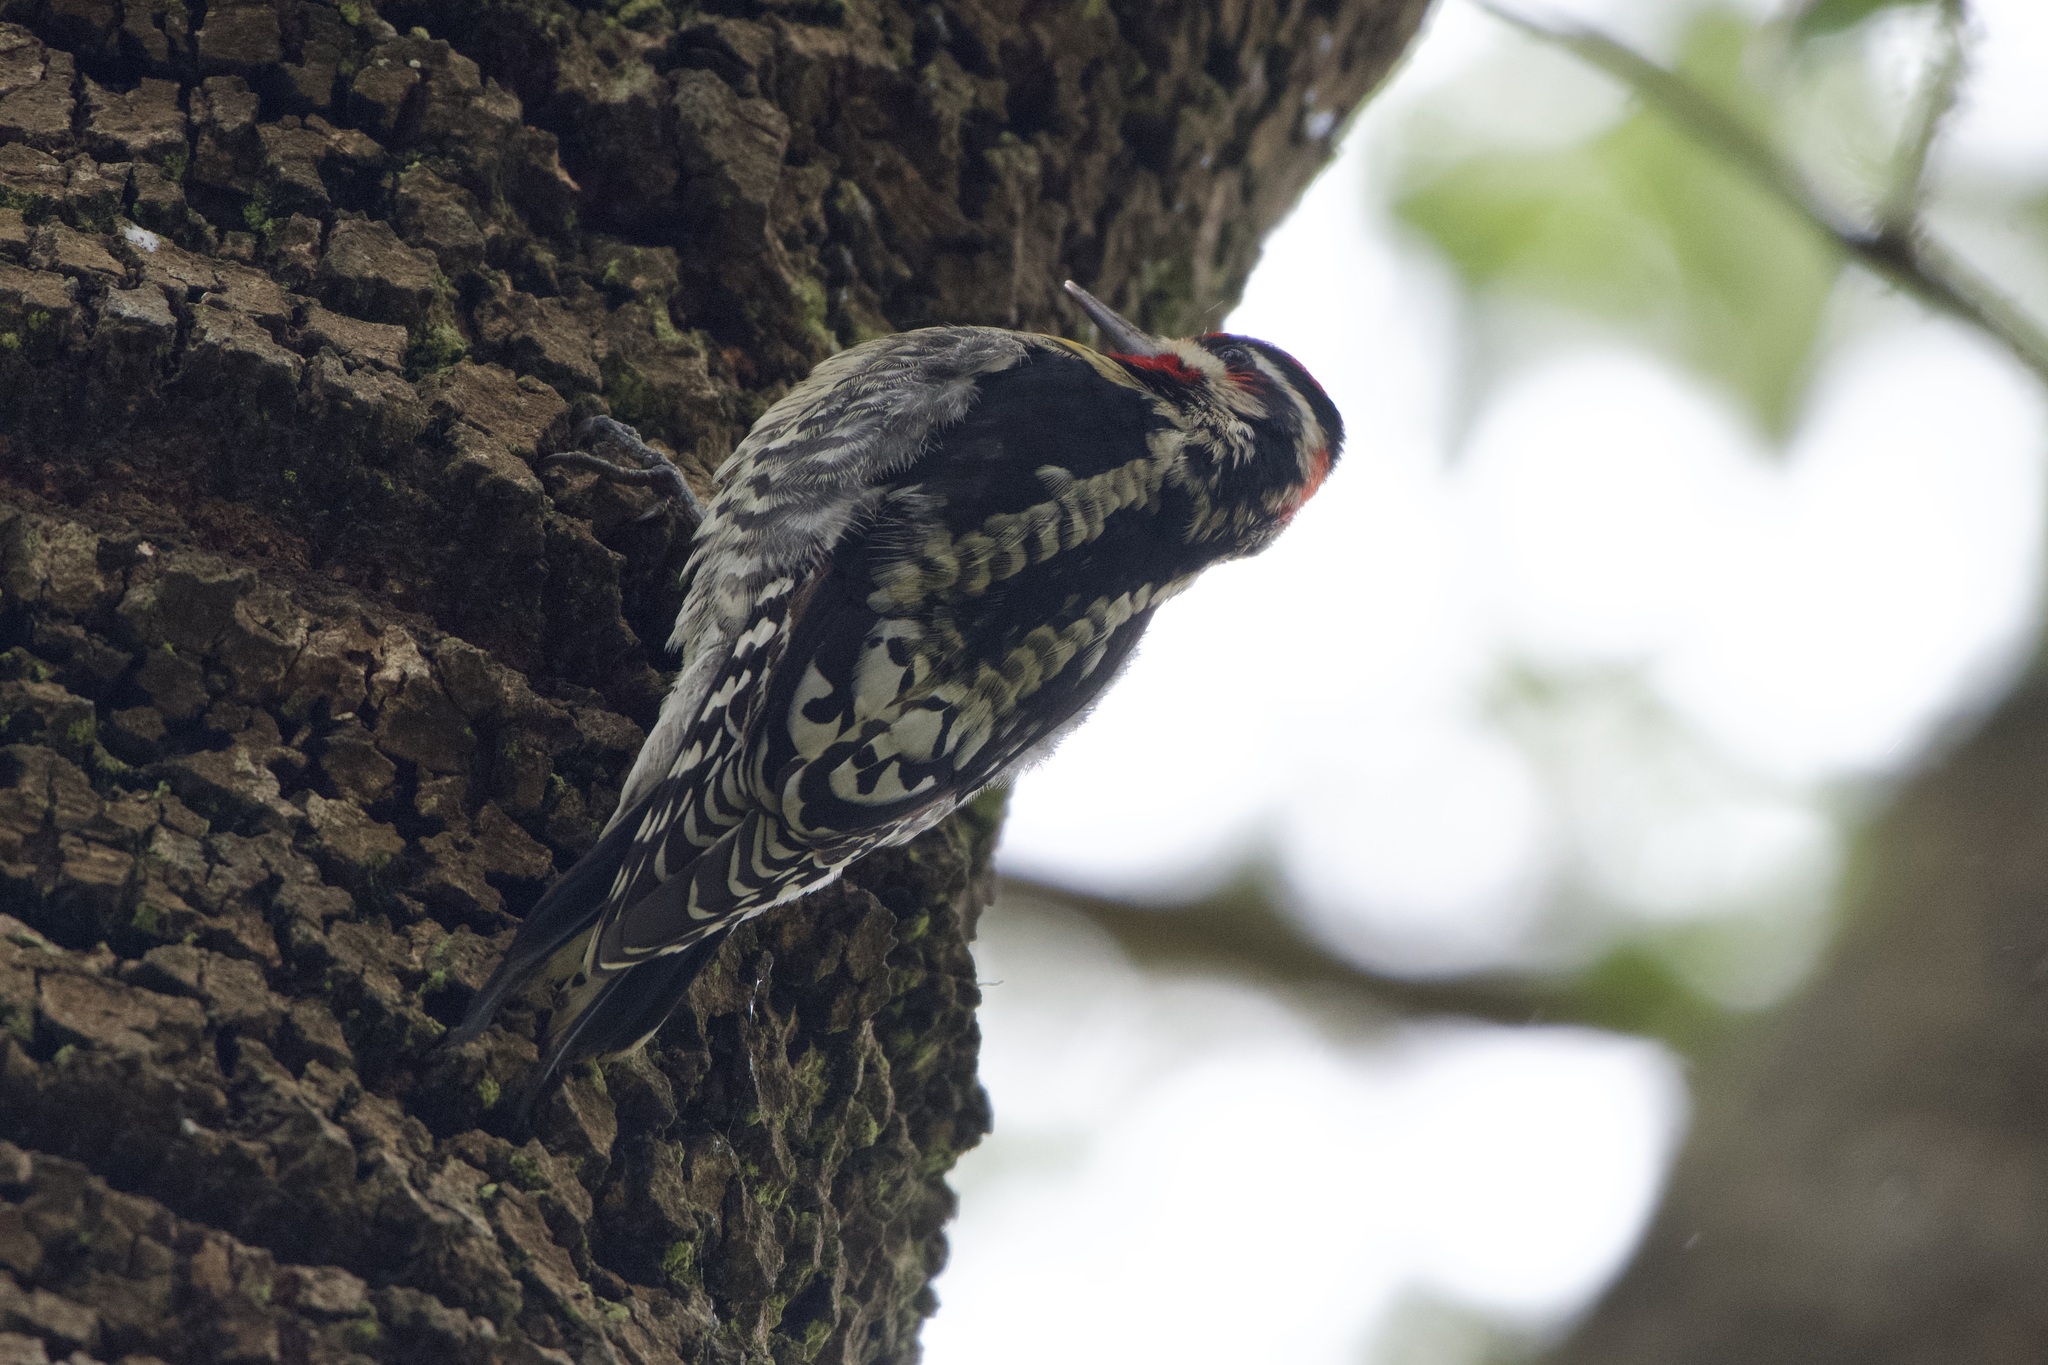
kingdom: Animalia
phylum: Chordata
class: Aves
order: Piciformes
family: Picidae
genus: Sphyrapicus
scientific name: Sphyrapicus nuchalis
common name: Red-naped sapsucker
